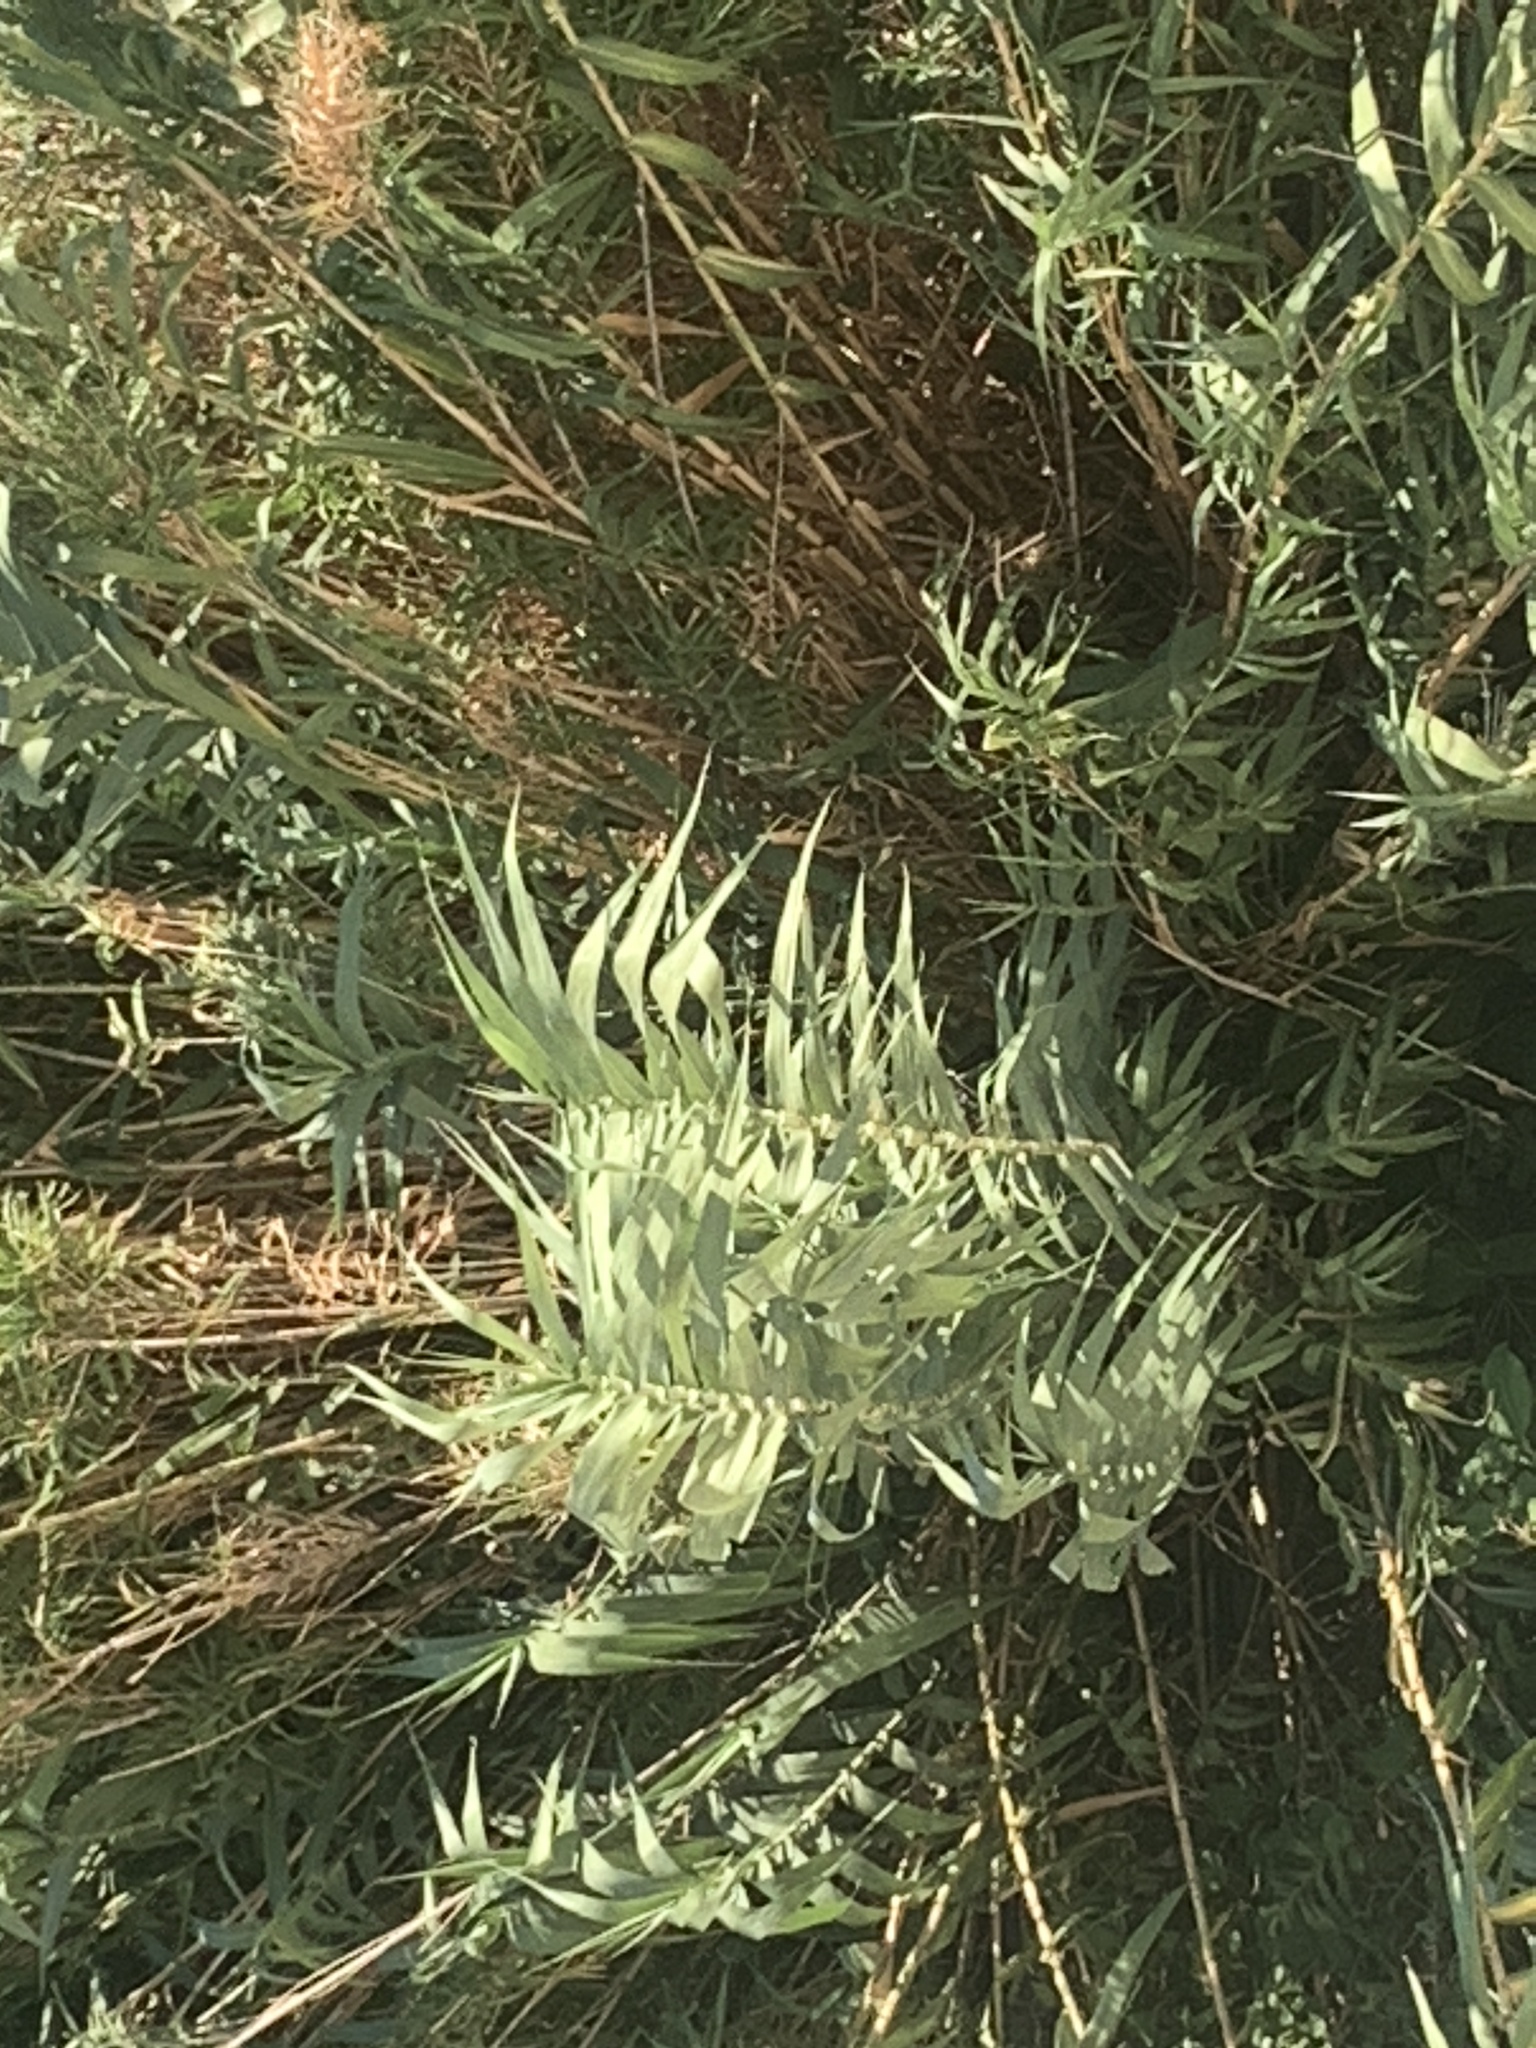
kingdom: Plantae
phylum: Tracheophyta
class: Liliopsida
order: Poales
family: Poaceae
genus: Arundo
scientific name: Arundo donax
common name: Giant reed
